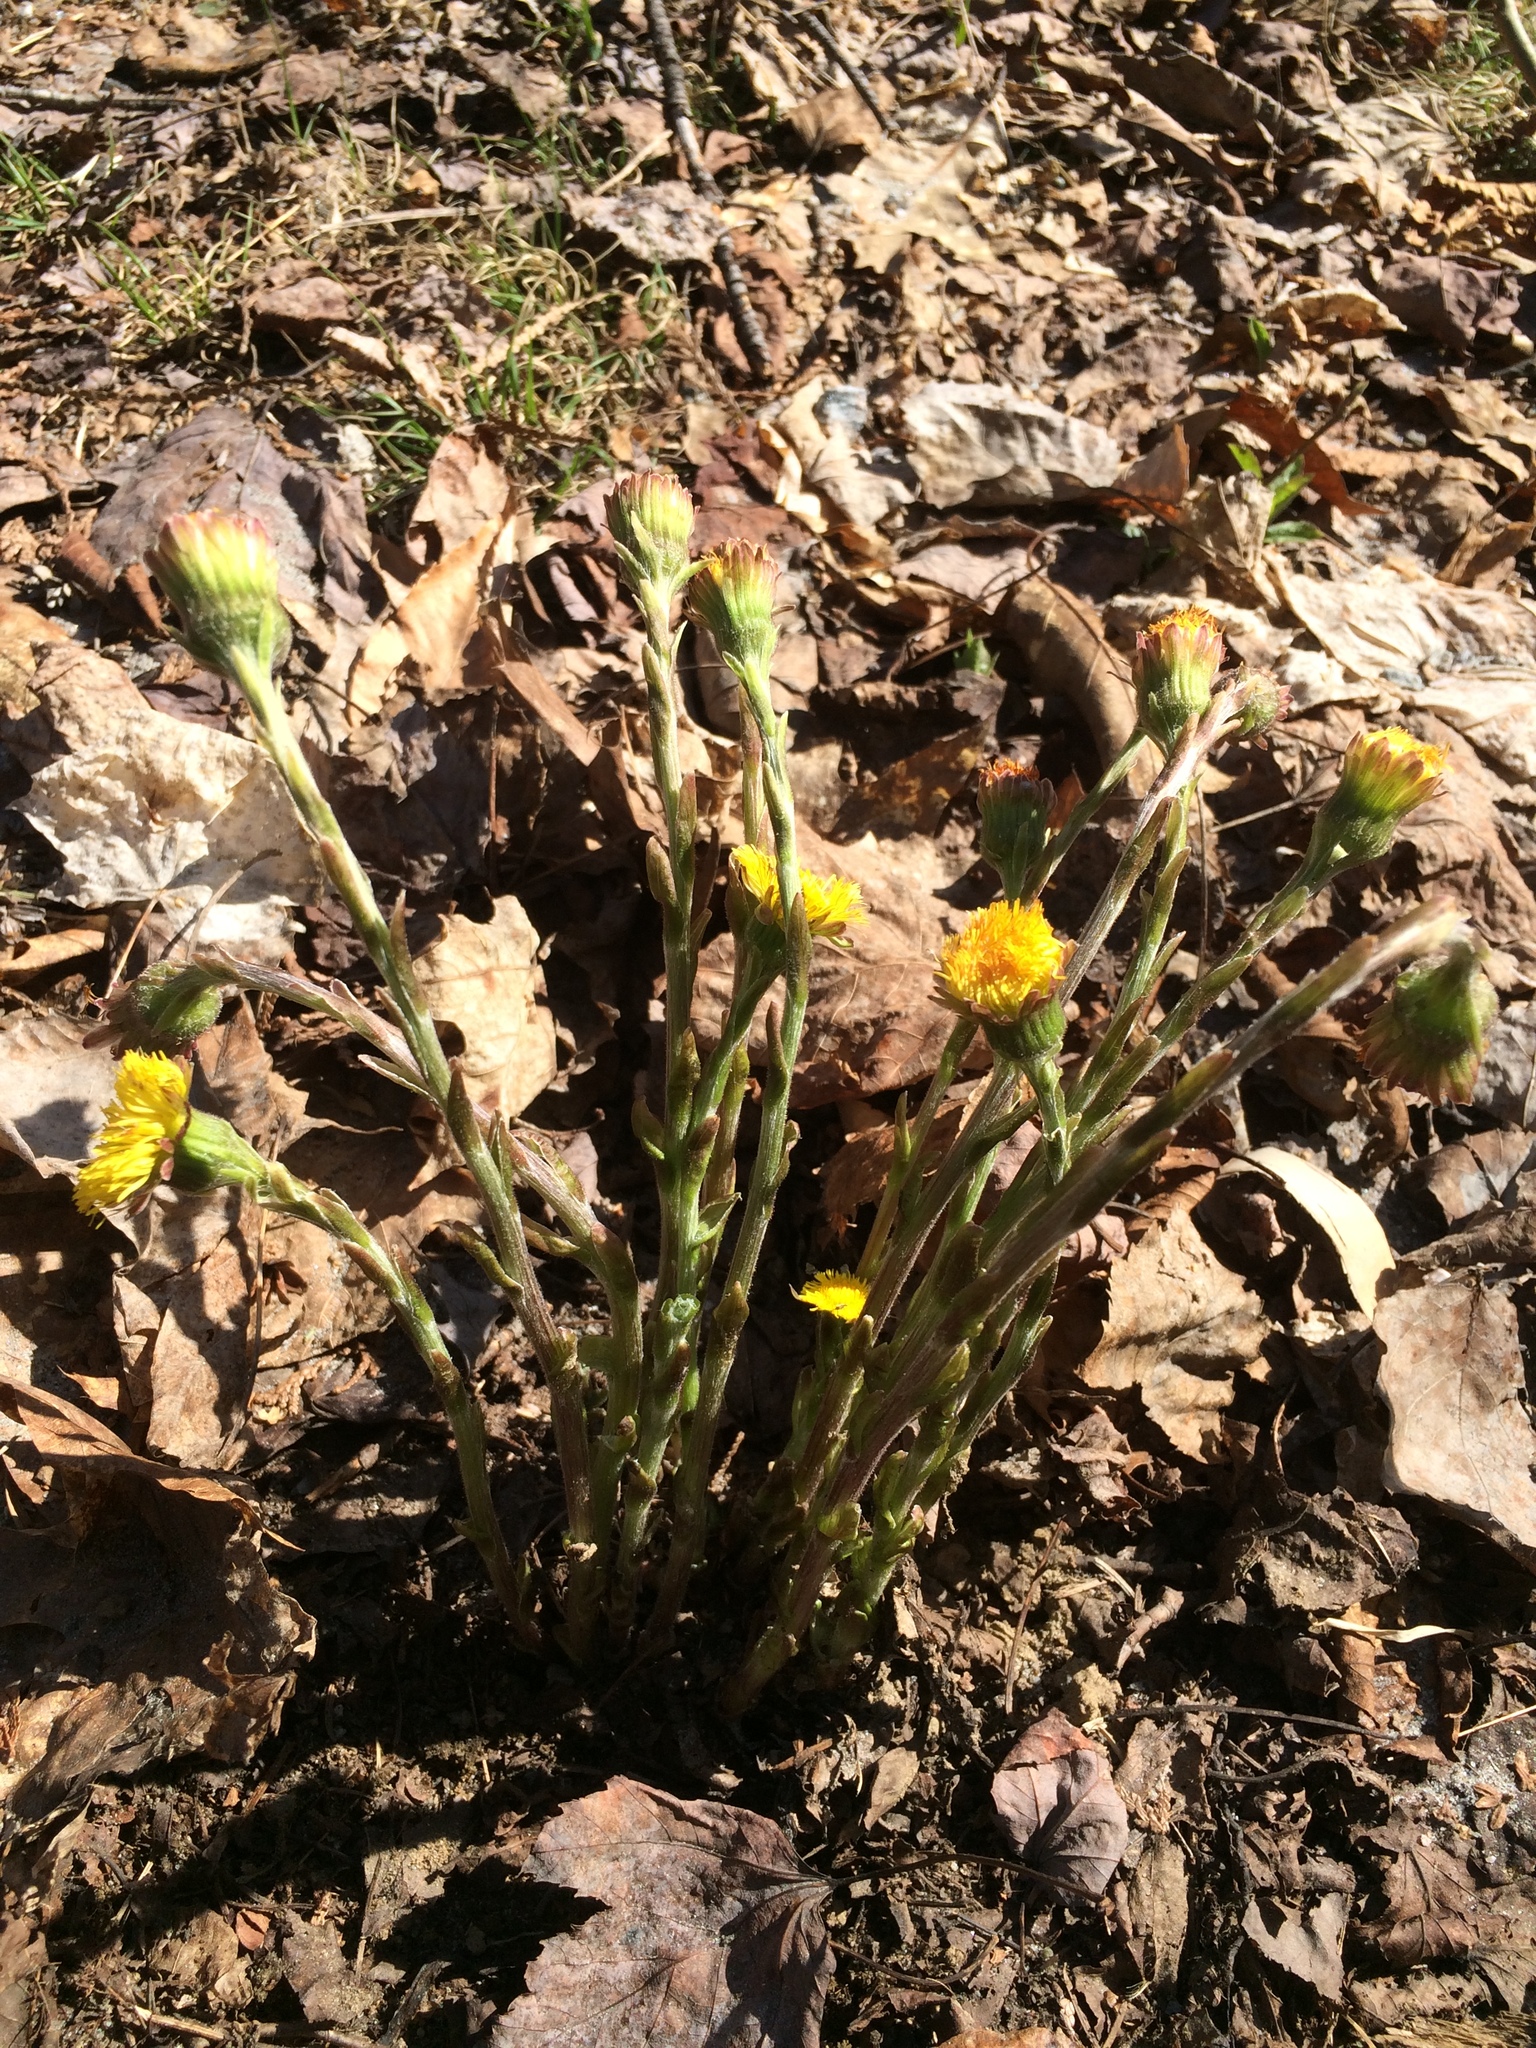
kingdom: Plantae
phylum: Tracheophyta
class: Magnoliopsida
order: Asterales
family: Asteraceae
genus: Tussilago
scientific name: Tussilago farfara
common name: Coltsfoot
